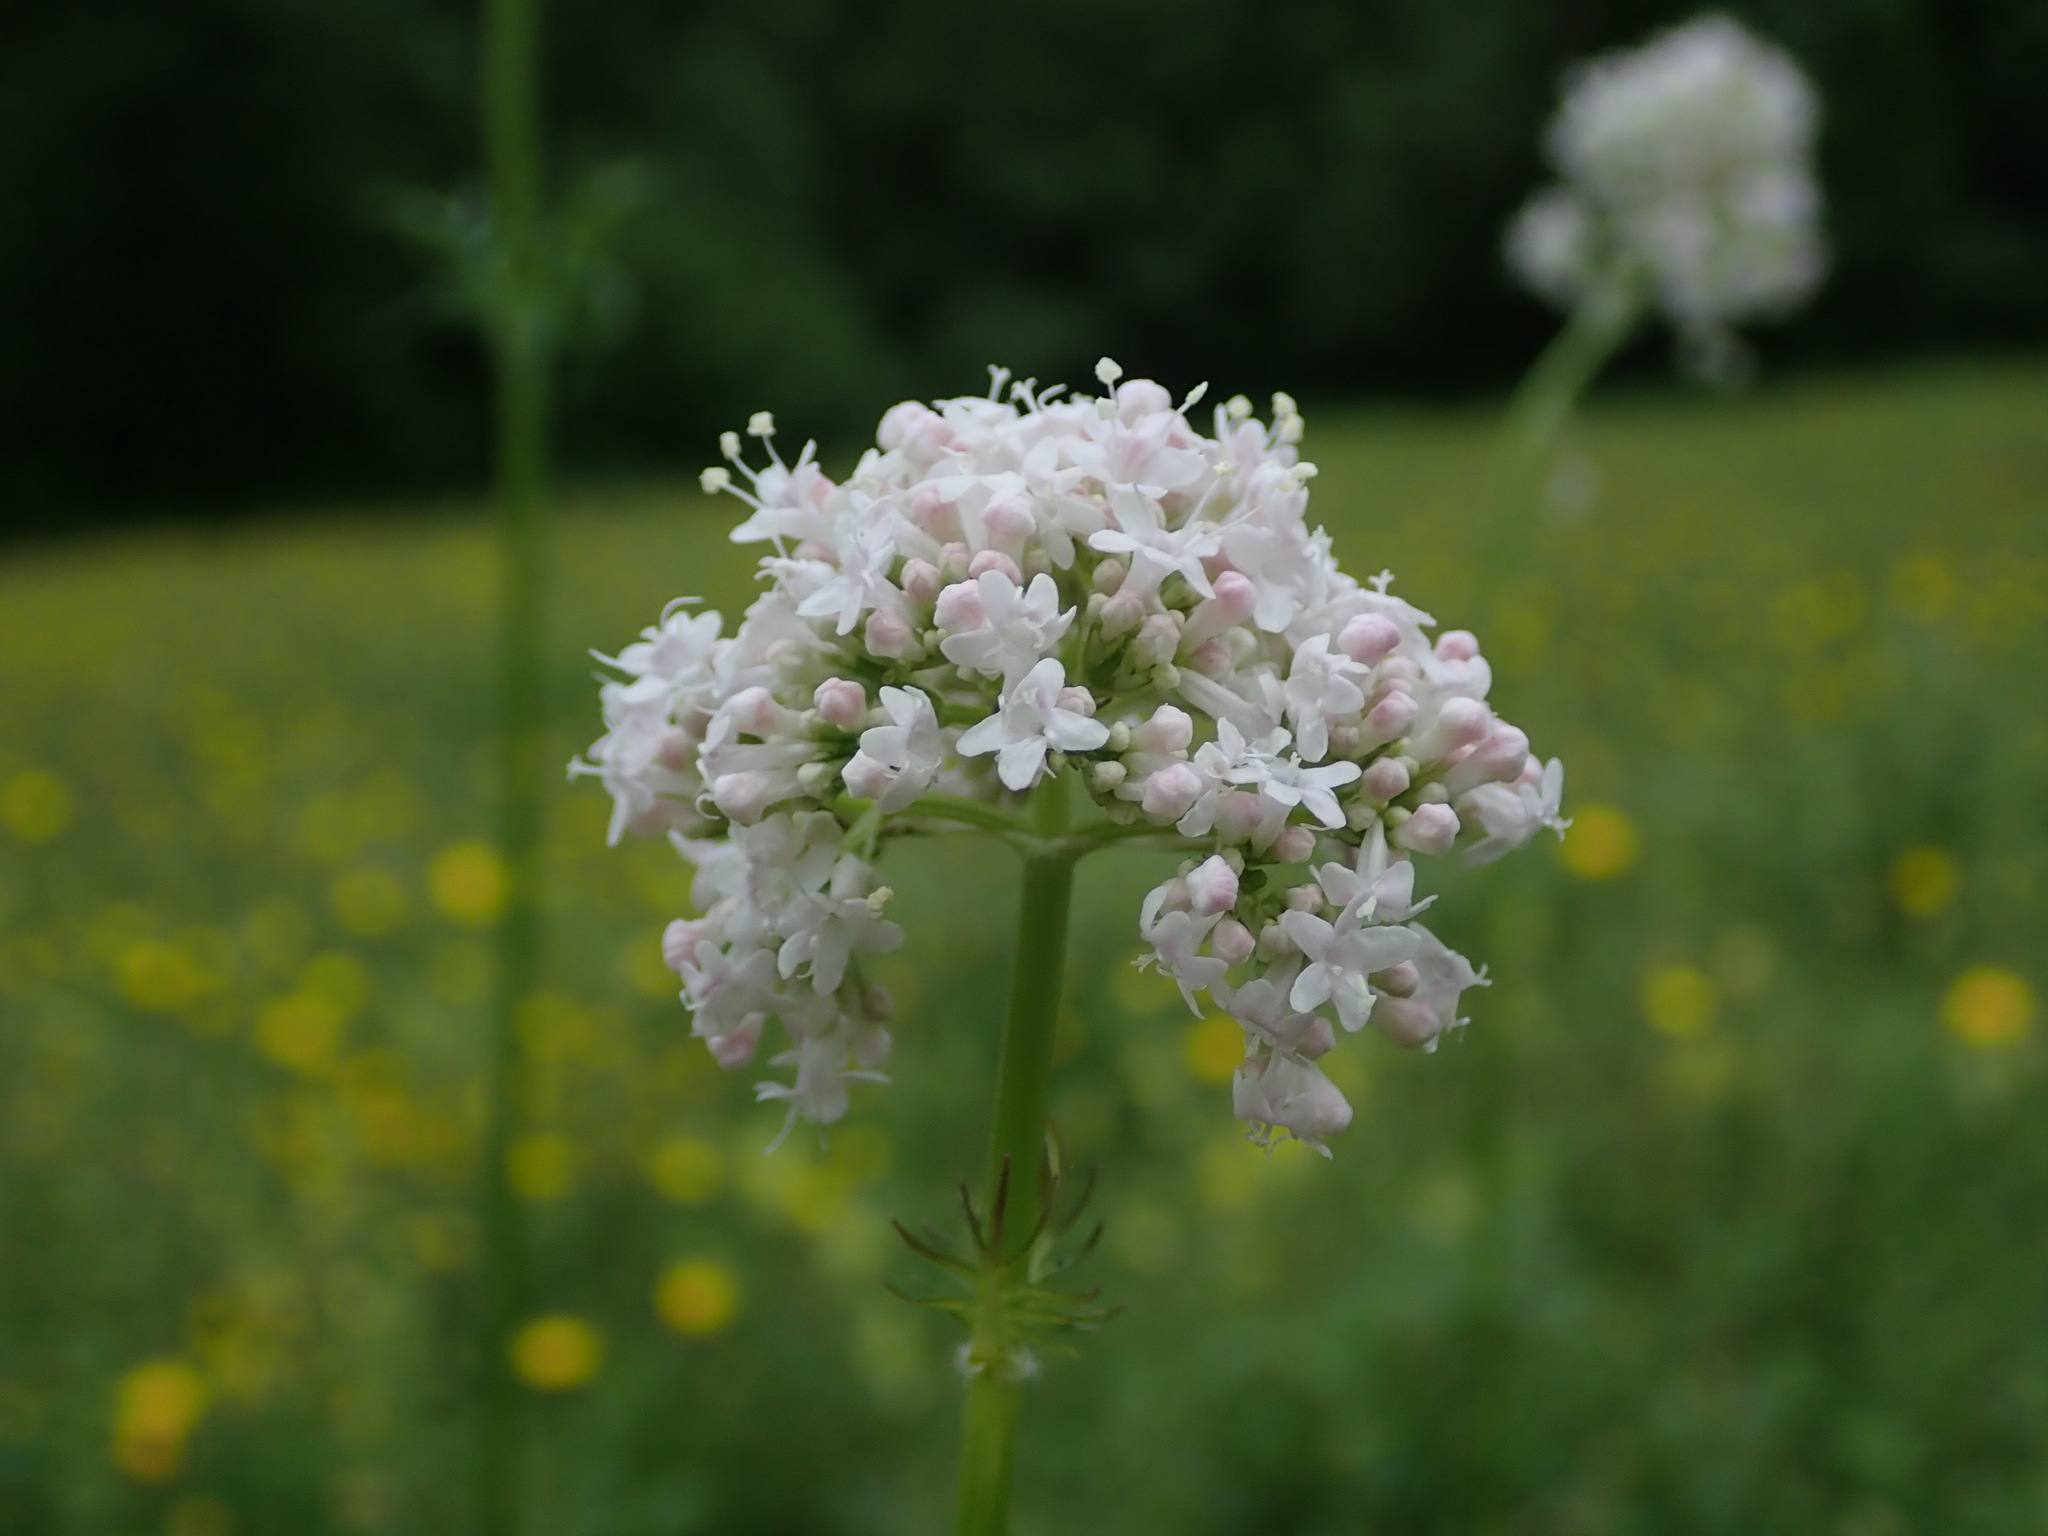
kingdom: Plantae
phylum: Tracheophyta
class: Magnoliopsida
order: Dipsacales
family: Caprifoliaceae
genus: Valeriana
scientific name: Valeriana officinalis
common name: Common valerian
